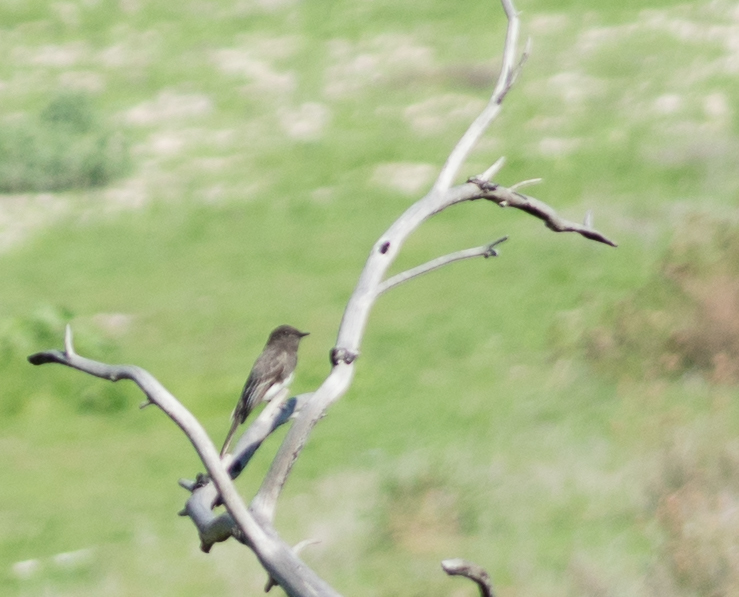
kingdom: Animalia
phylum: Chordata
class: Aves
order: Passeriformes
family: Tyrannidae
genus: Sayornis
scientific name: Sayornis nigricans
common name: Black phoebe
